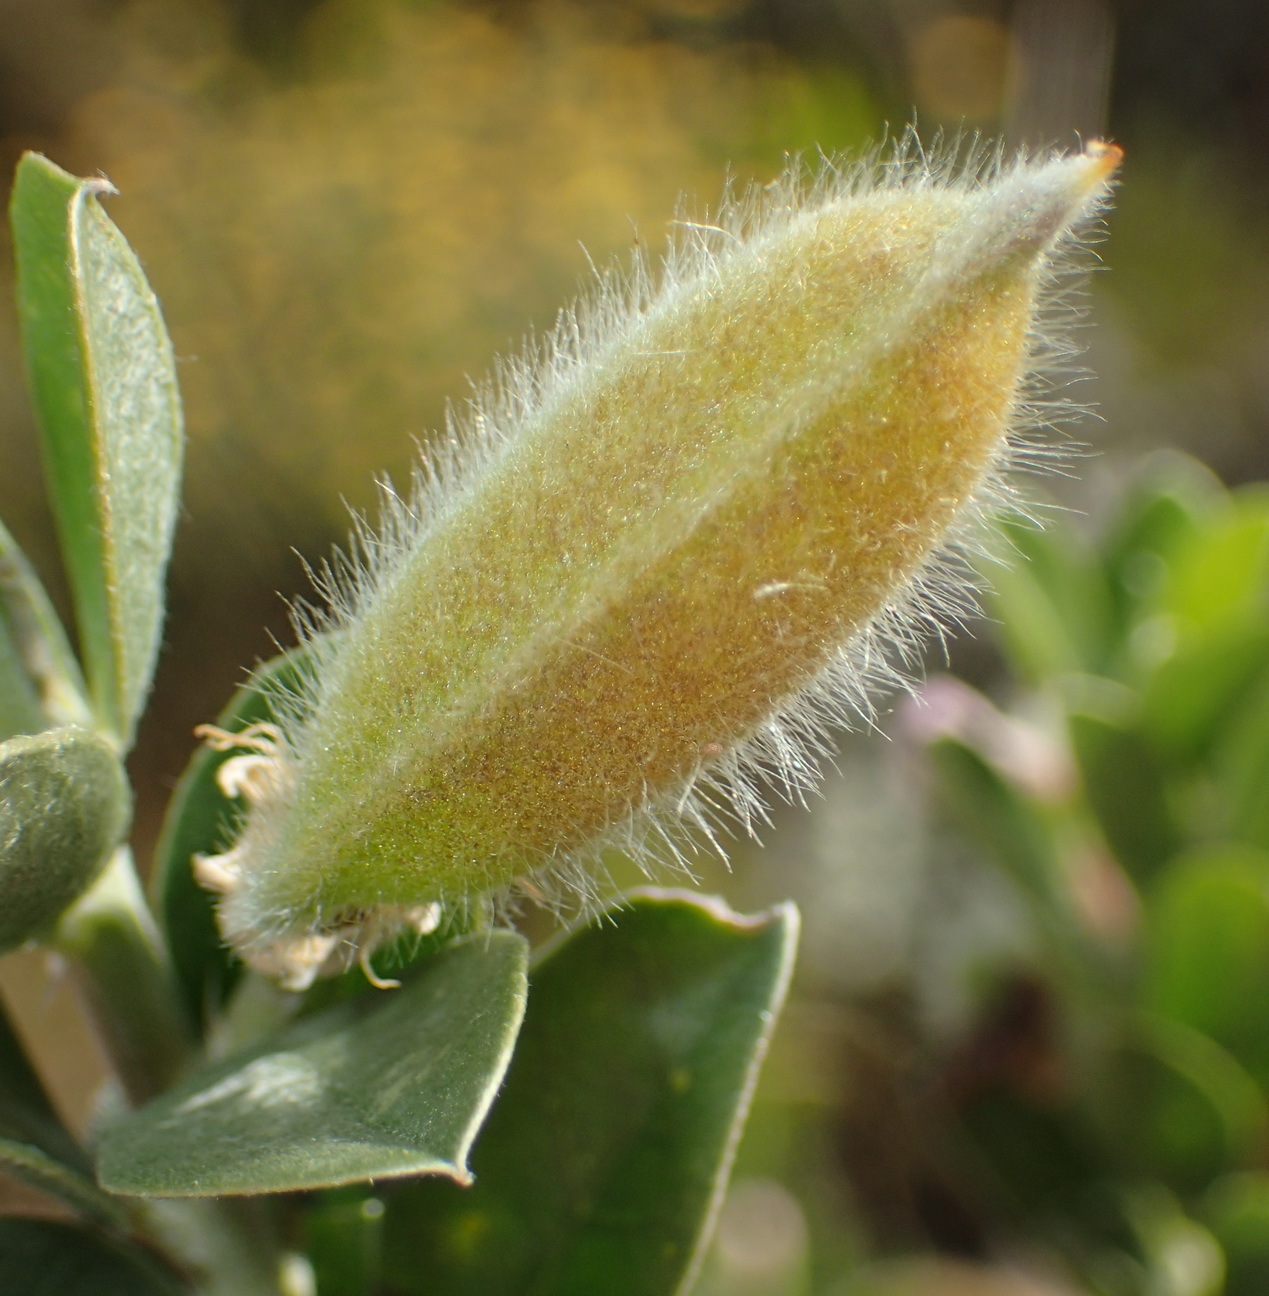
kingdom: Plantae
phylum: Tracheophyta
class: Magnoliopsida
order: Fabales
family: Fabaceae
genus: Podalyria
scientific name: Podalyria myrtillifolia
